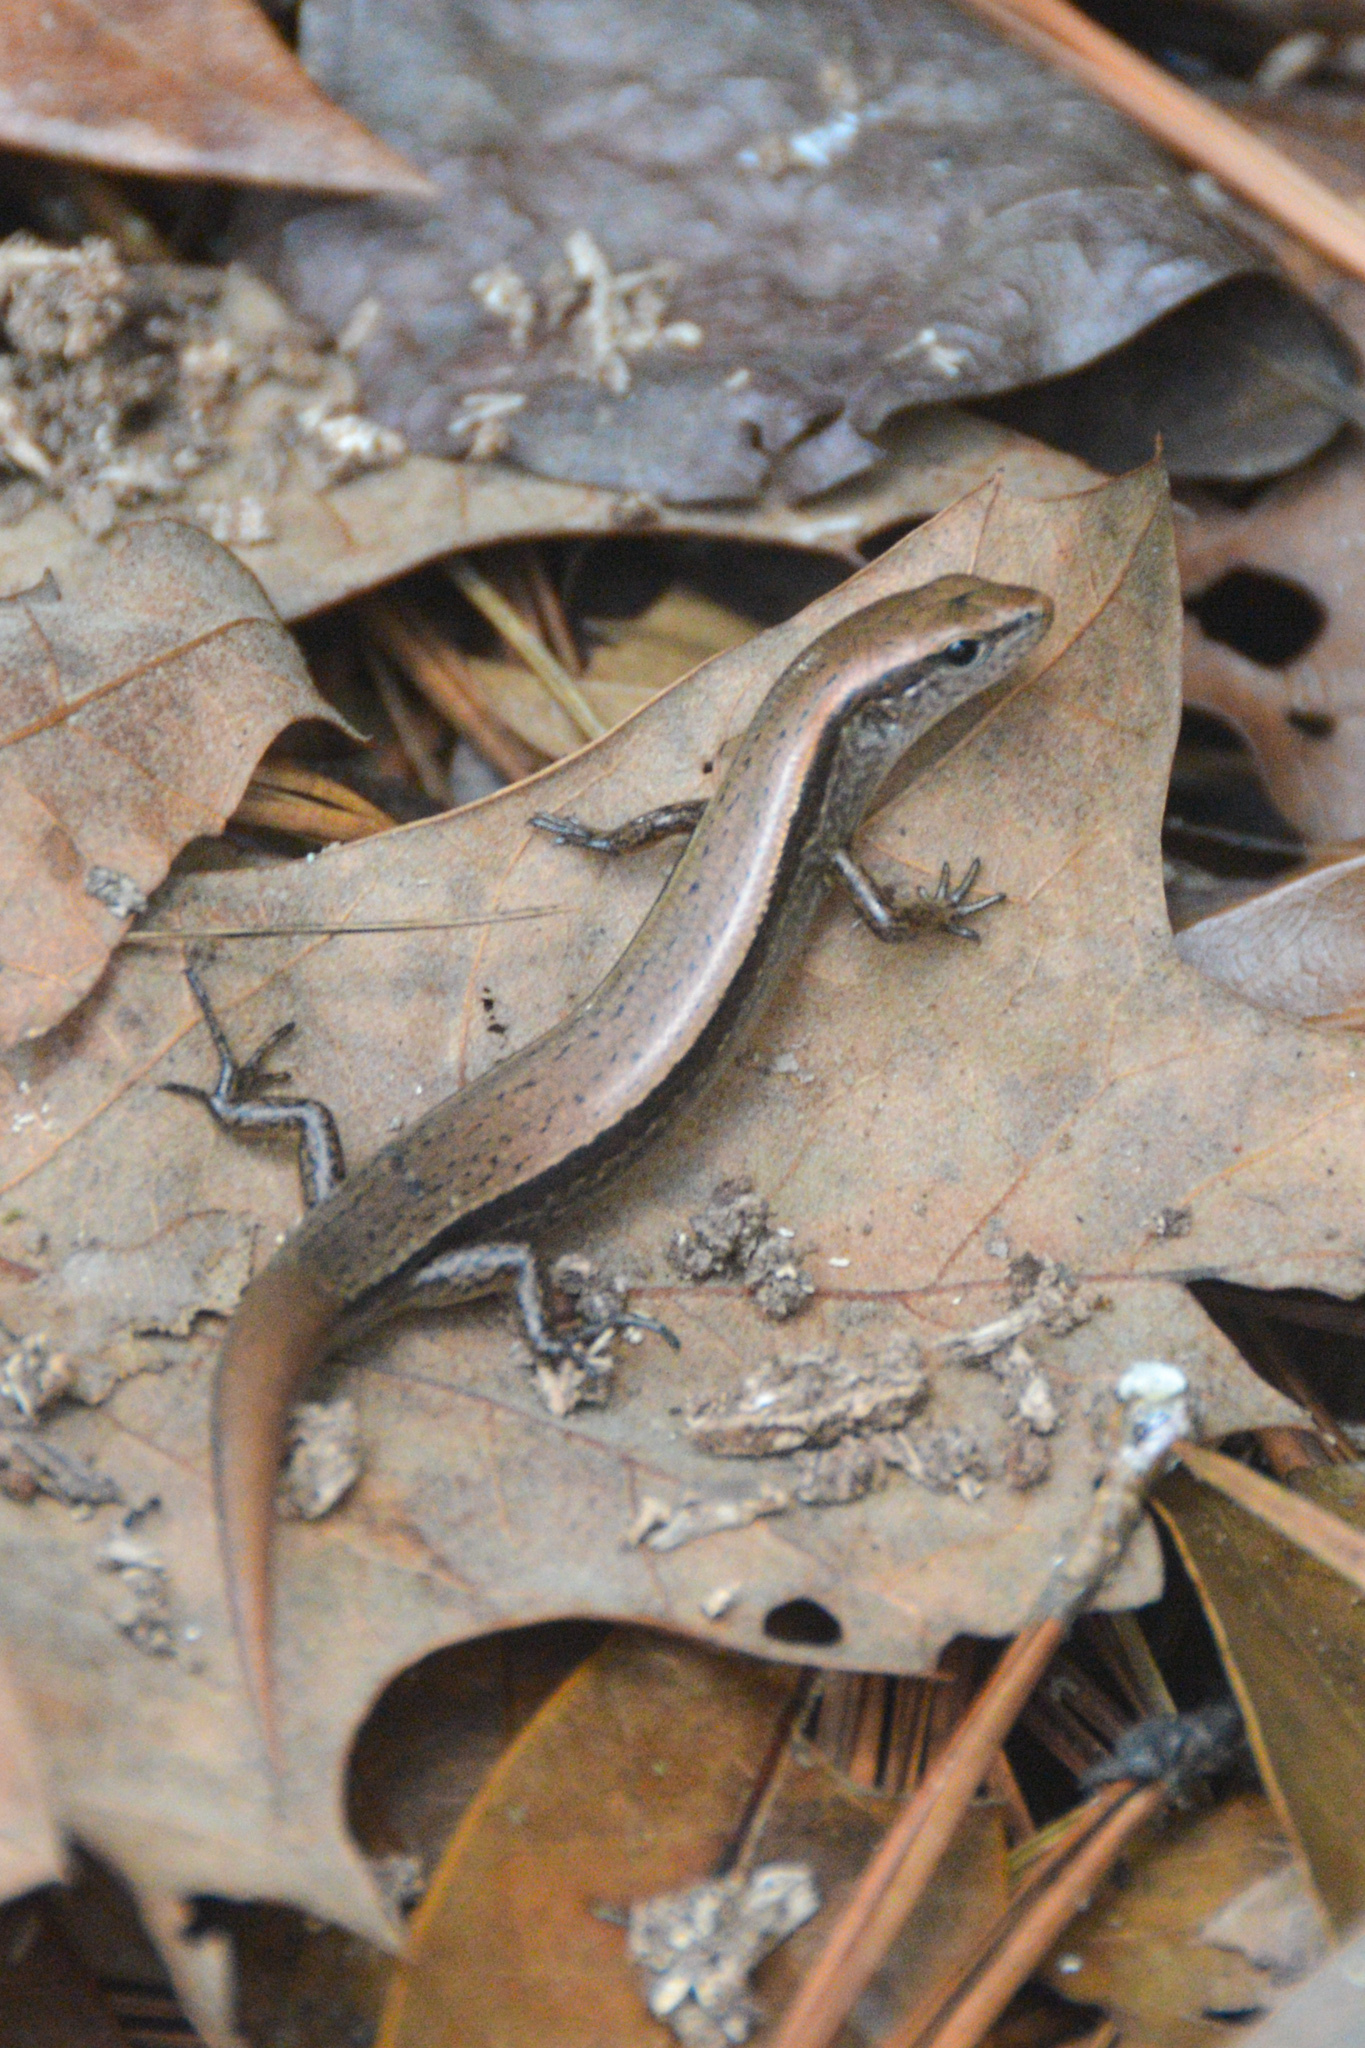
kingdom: Animalia
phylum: Chordata
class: Squamata
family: Scincidae
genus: Scincella
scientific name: Scincella lateralis
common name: Ground skink
